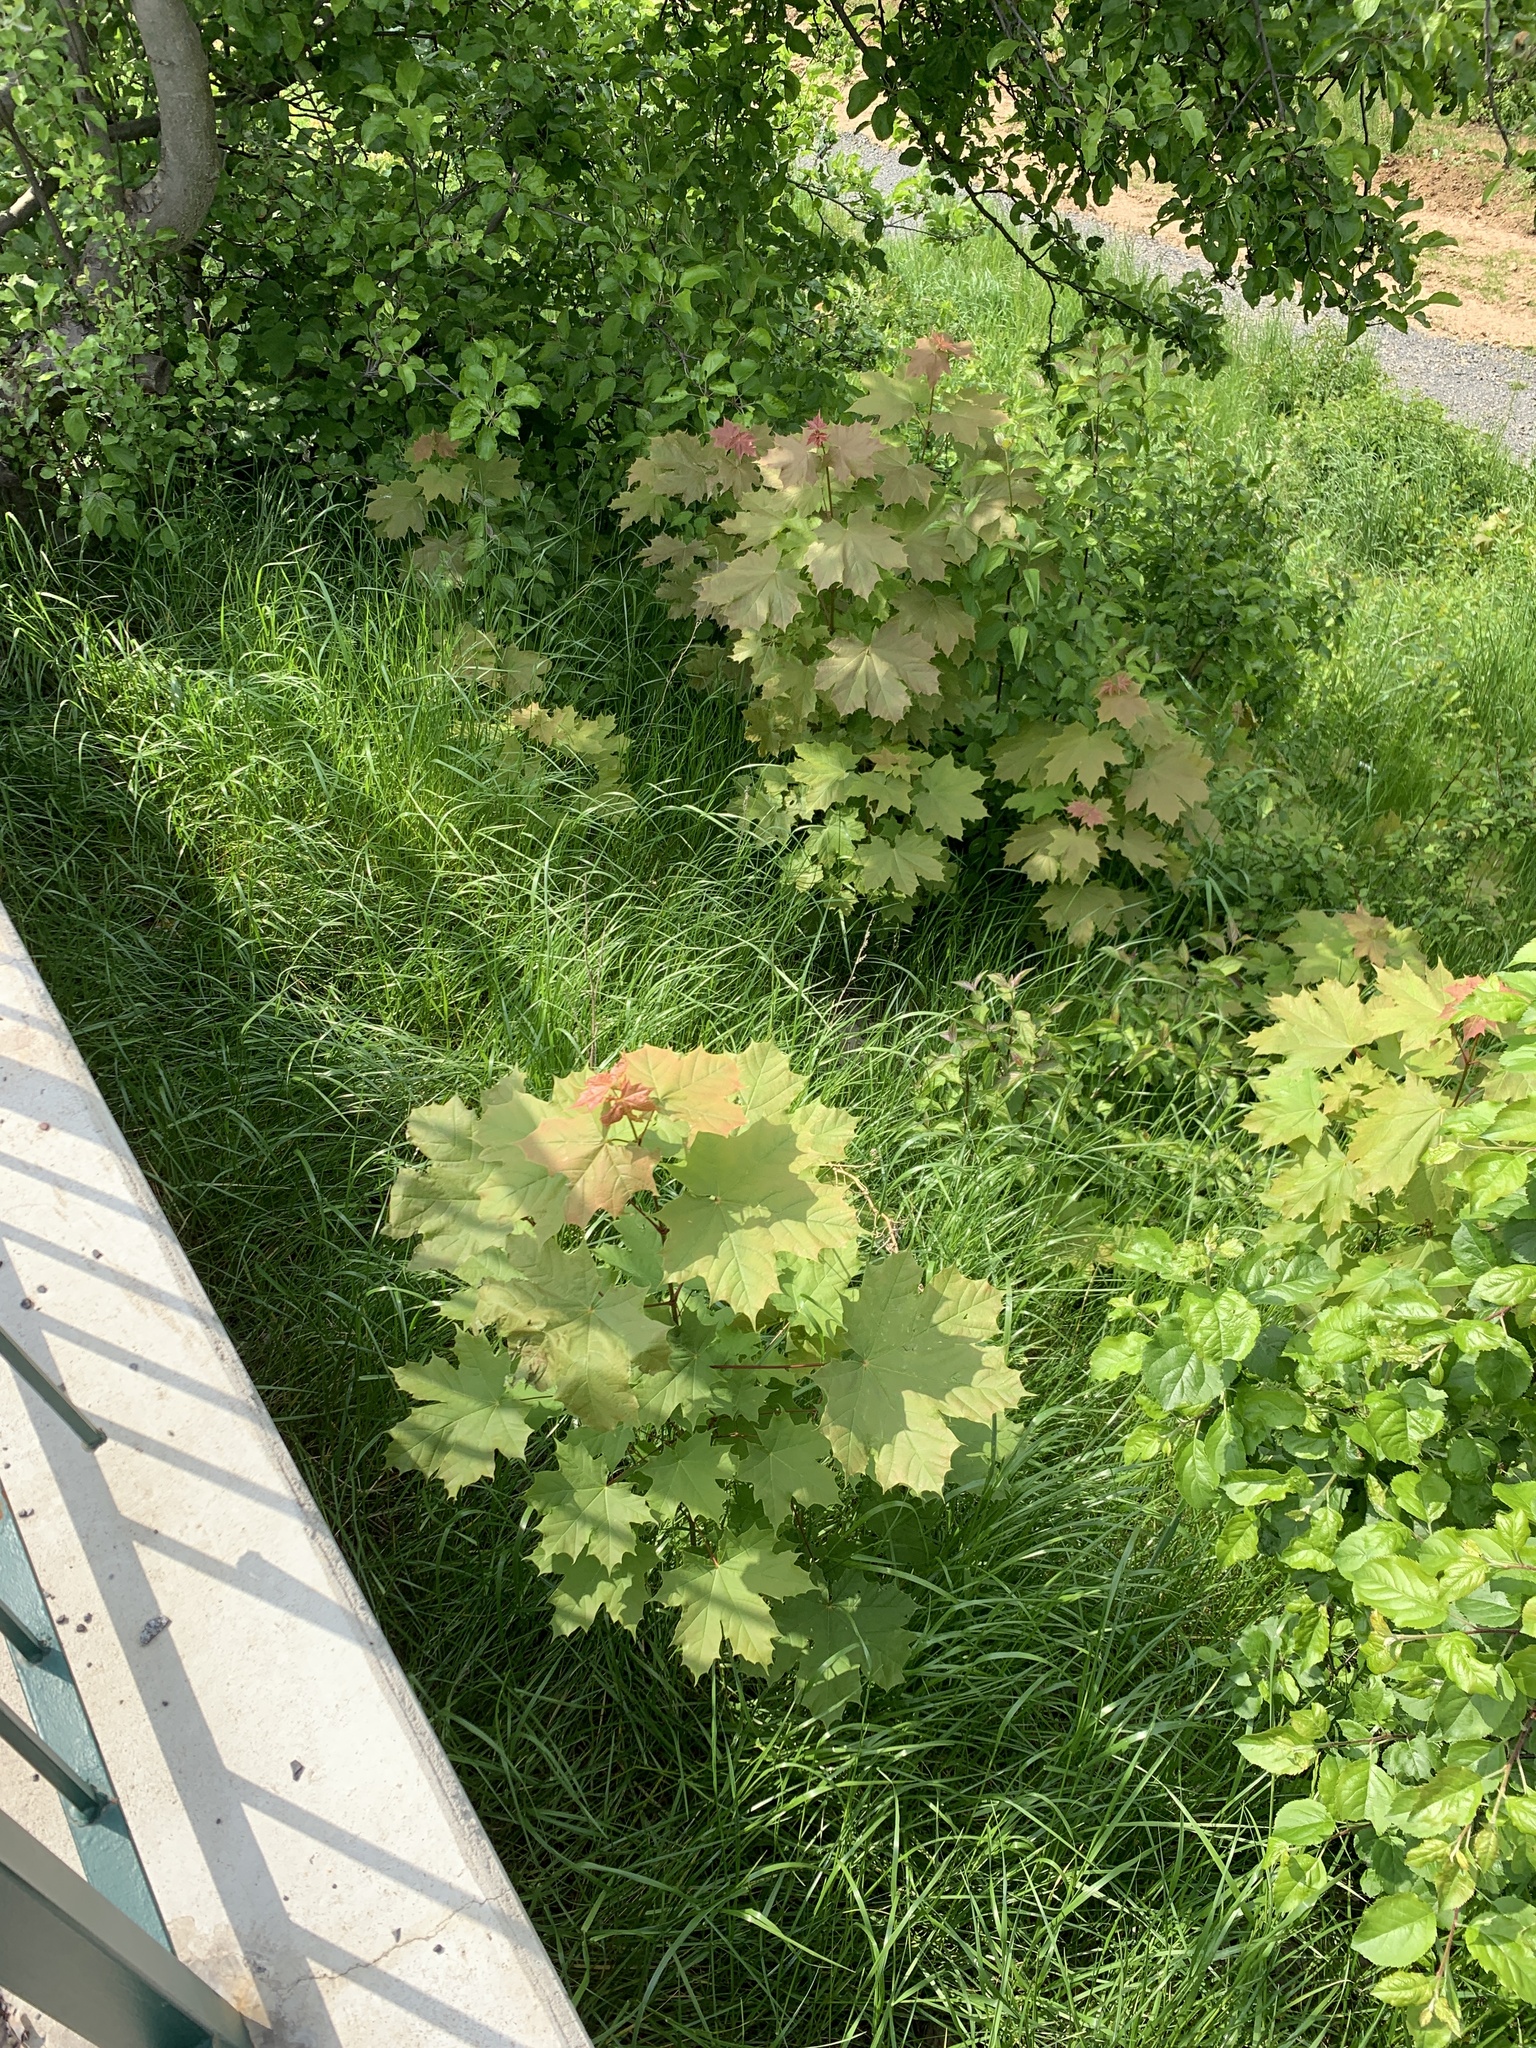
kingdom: Plantae
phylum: Tracheophyta
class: Magnoliopsida
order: Sapindales
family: Sapindaceae
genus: Acer
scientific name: Acer platanoides
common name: Norway maple
